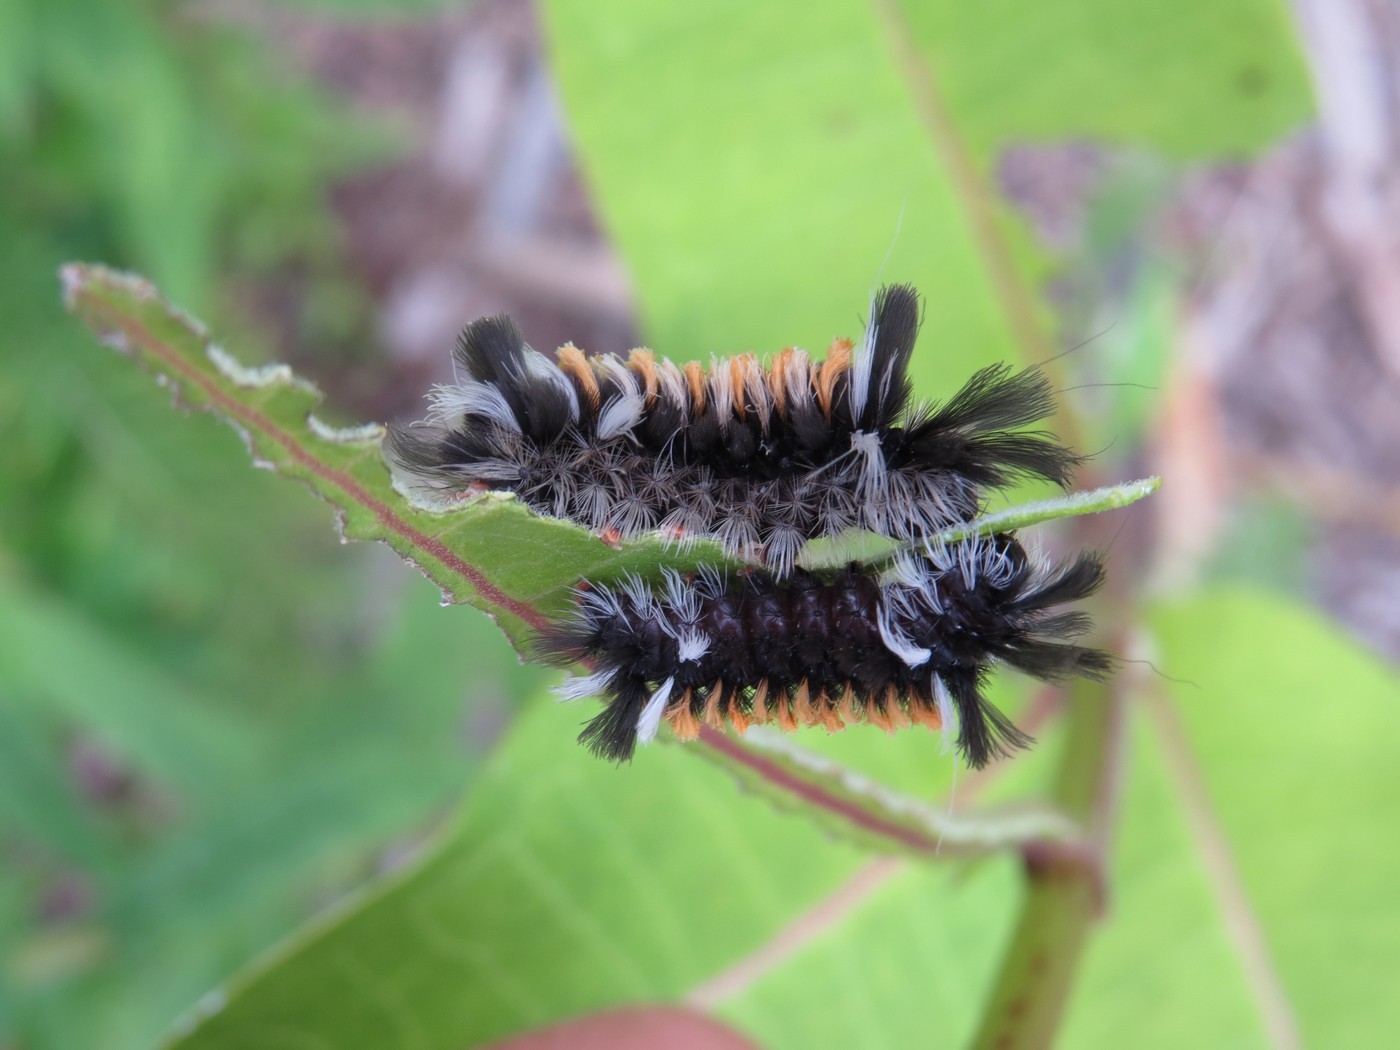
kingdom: Animalia
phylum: Arthropoda
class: Insecta
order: Lepidoptera
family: Erebidae
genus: Euchaetes
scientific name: Euchaetes egle
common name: Milkweed tussock moth
